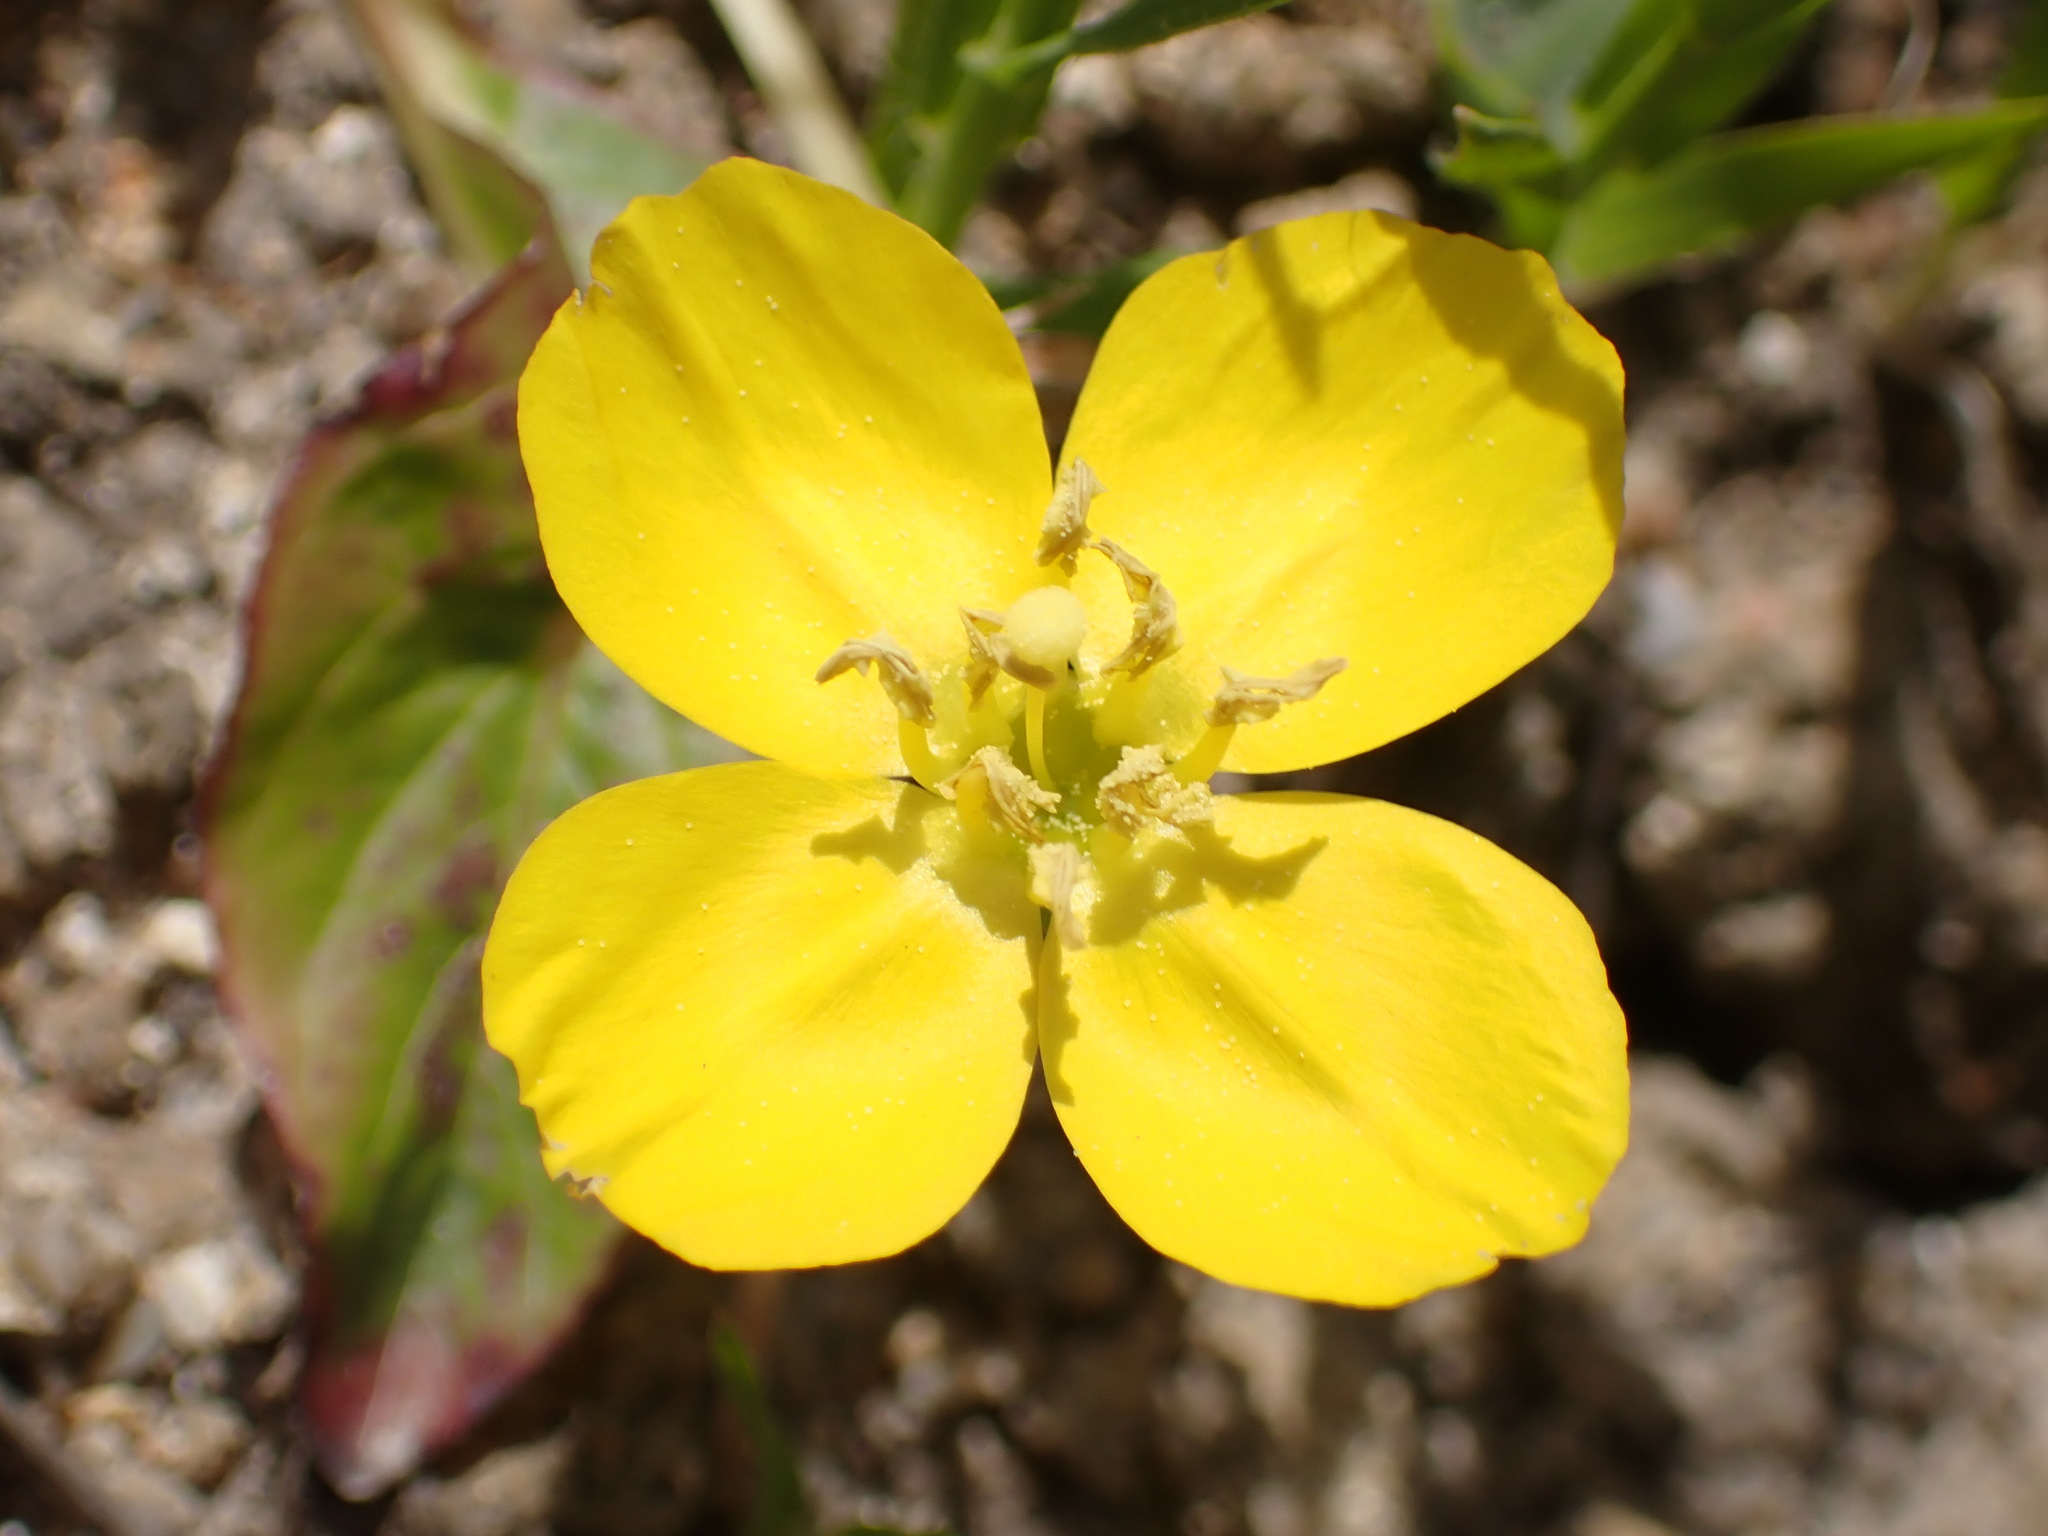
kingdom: Plantae
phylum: Tracheophyta
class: Magnoliopsida
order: Myrtales
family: Onagraceae
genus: Taraxia
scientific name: Taraxia ovata
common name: Goldeneggs
